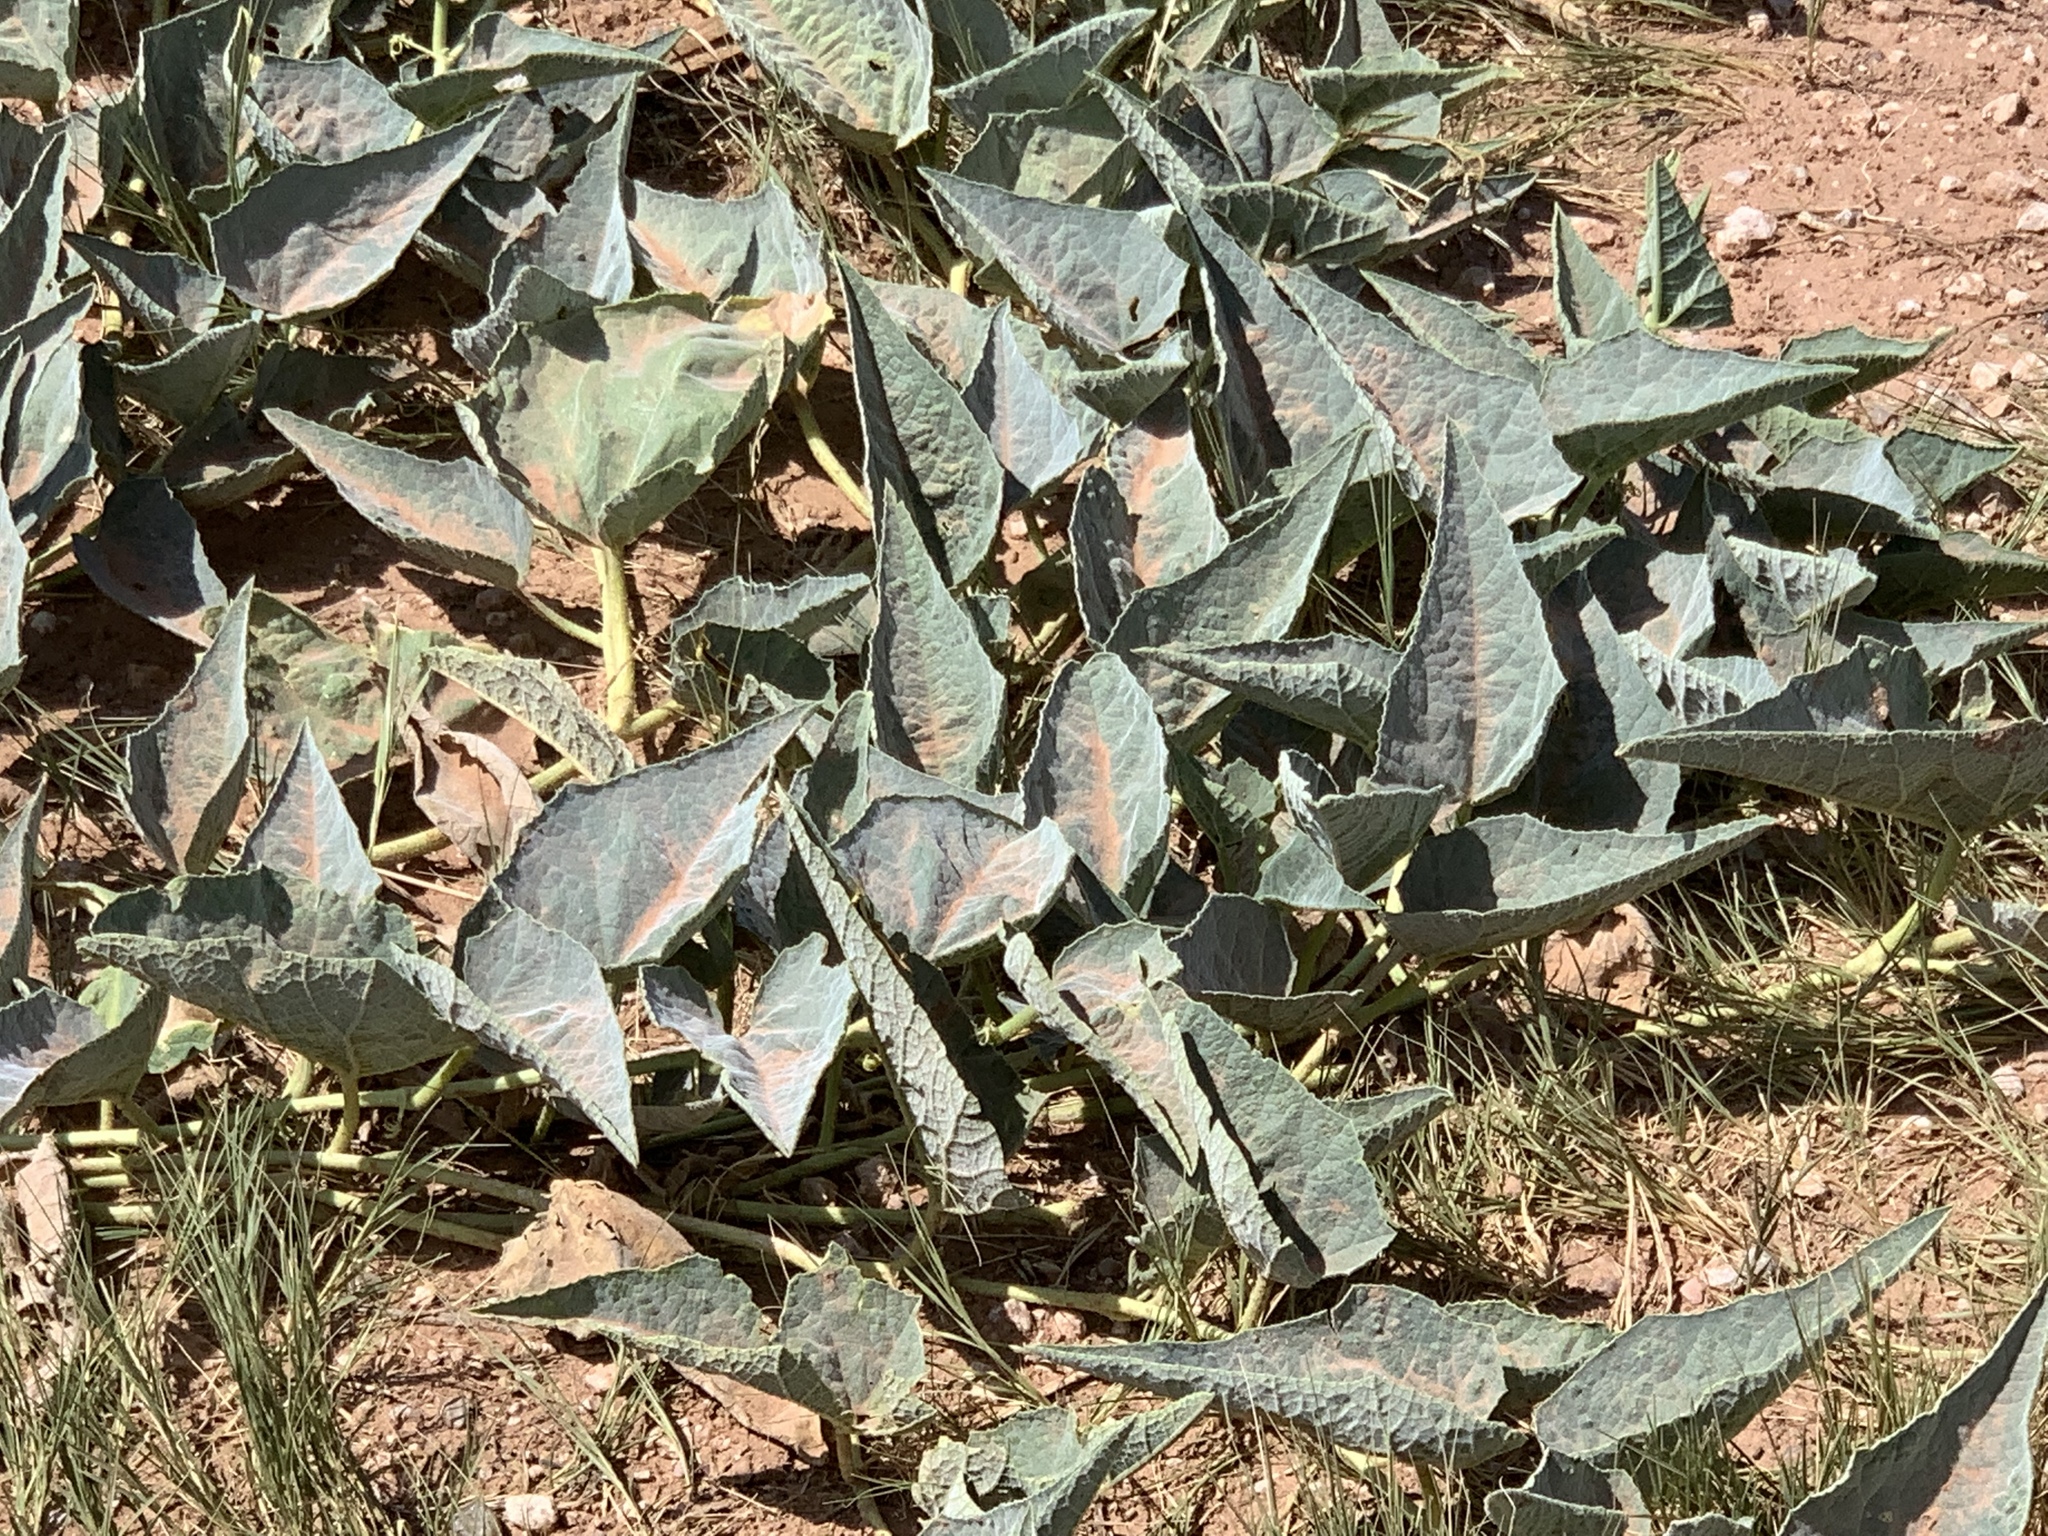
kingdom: Plantae
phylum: Tracheophyta
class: Magnoliopsida
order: Cucurbitales
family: Cucurbitaceae
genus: Cucurbita
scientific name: Cucurbita foetidissima
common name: Buffalo gourd
